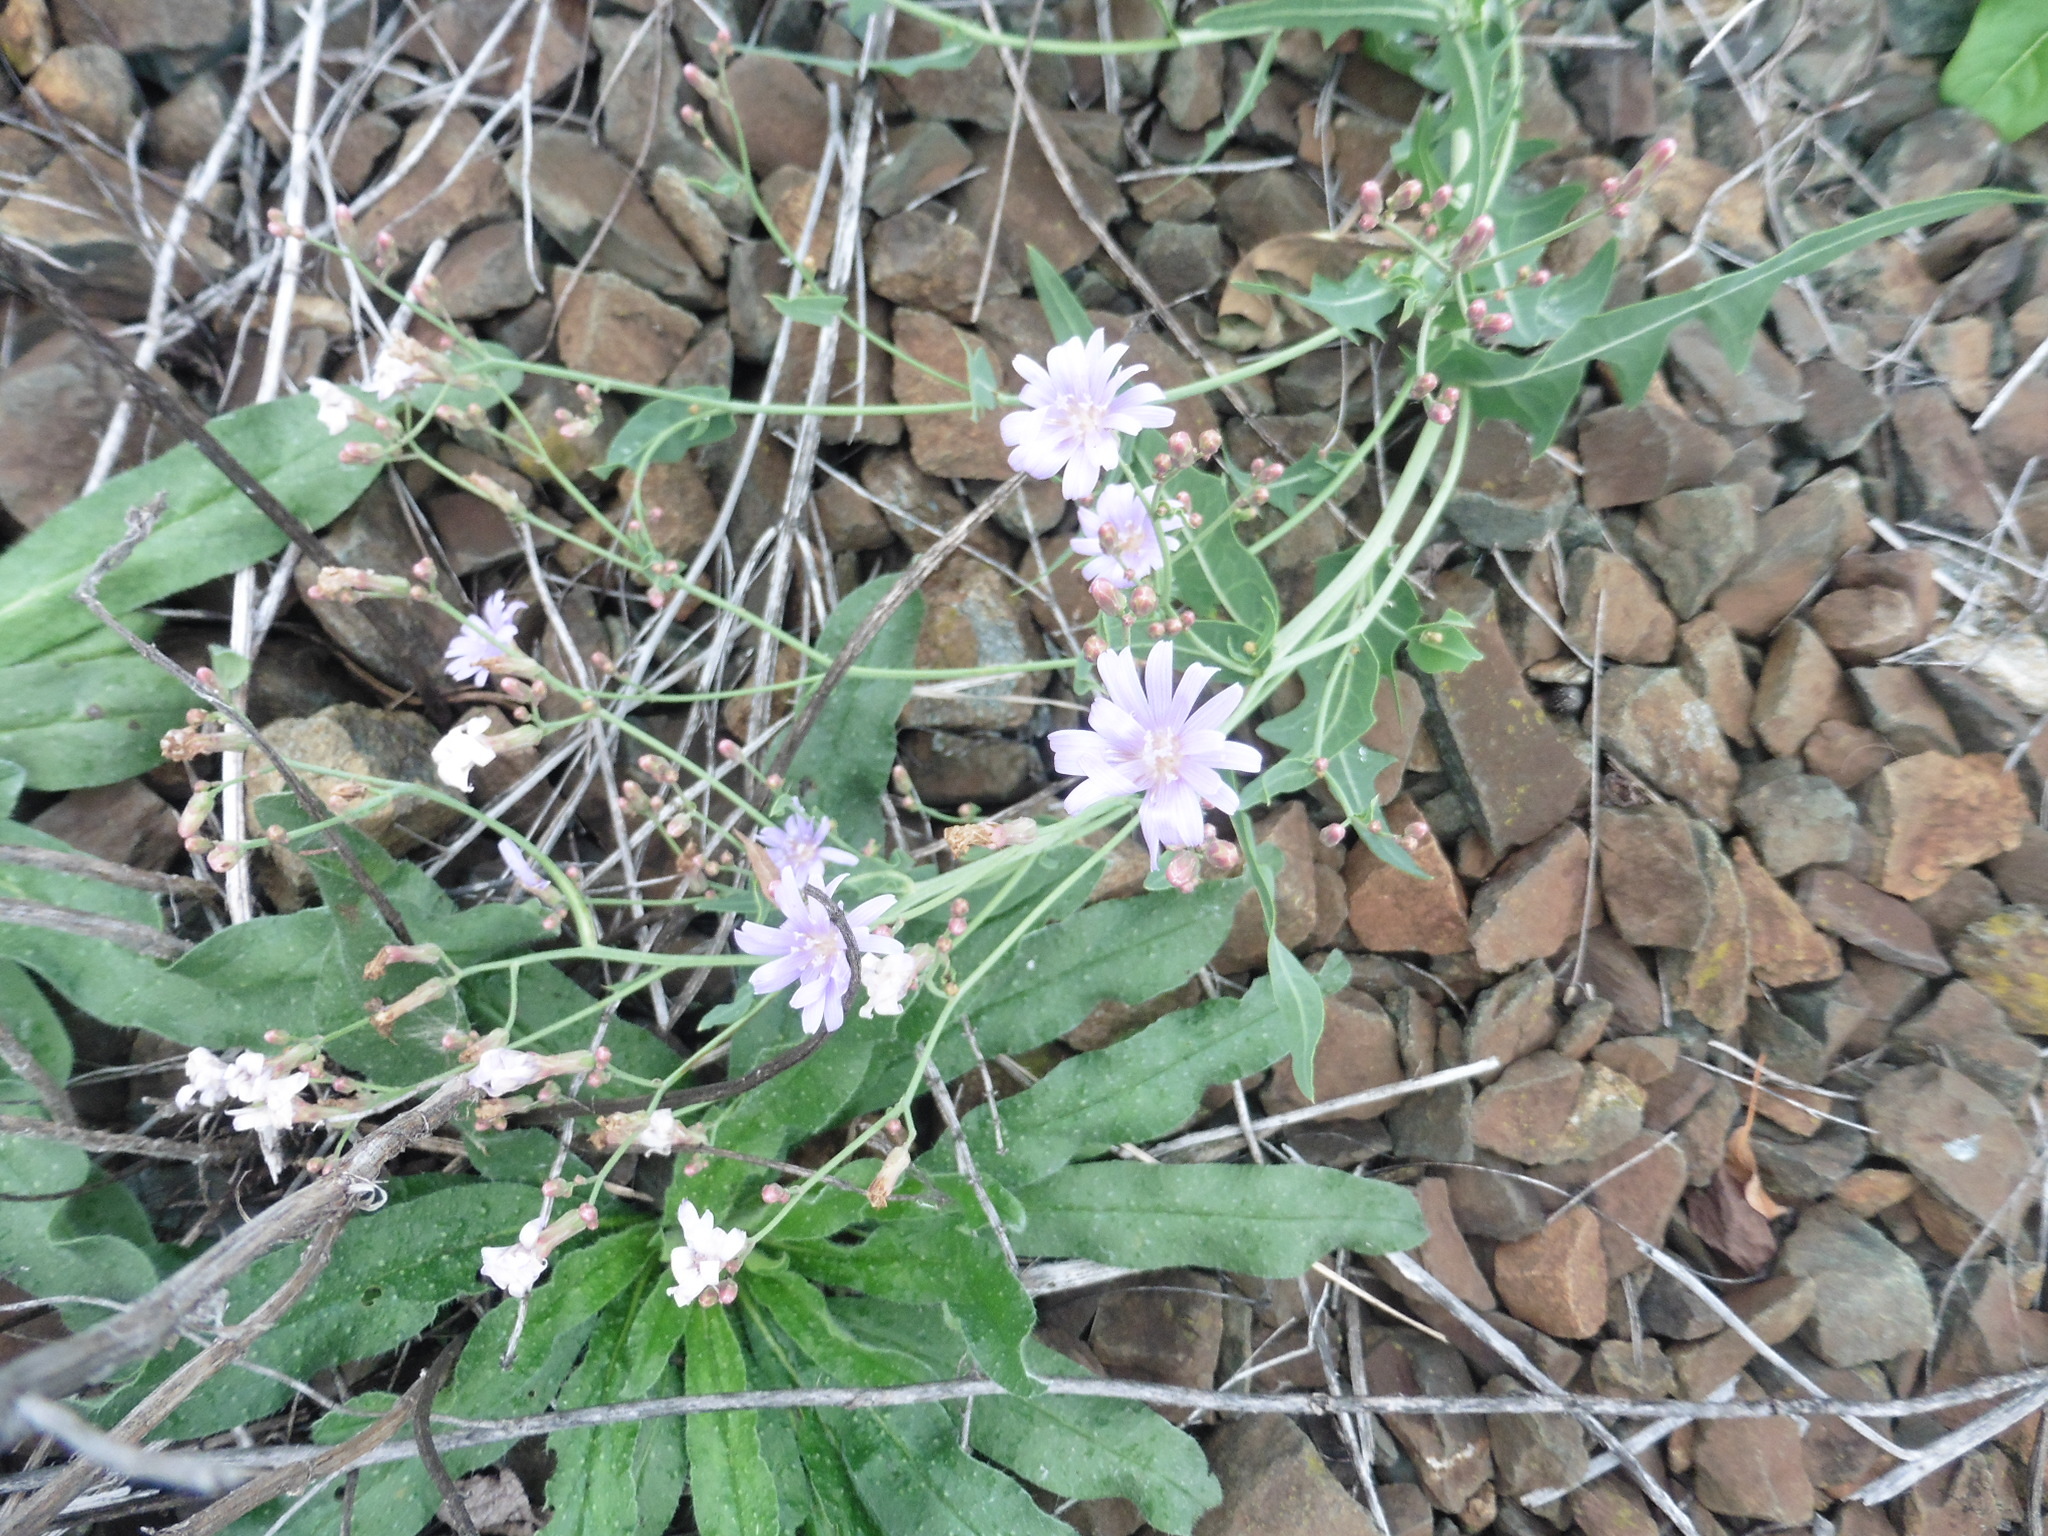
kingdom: Plantae
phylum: Tracheophyta
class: Magnoliopsida
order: Asterales
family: Asteraceae
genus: Lactuca
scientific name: Lactuca tatarica
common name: Blue lettuce
